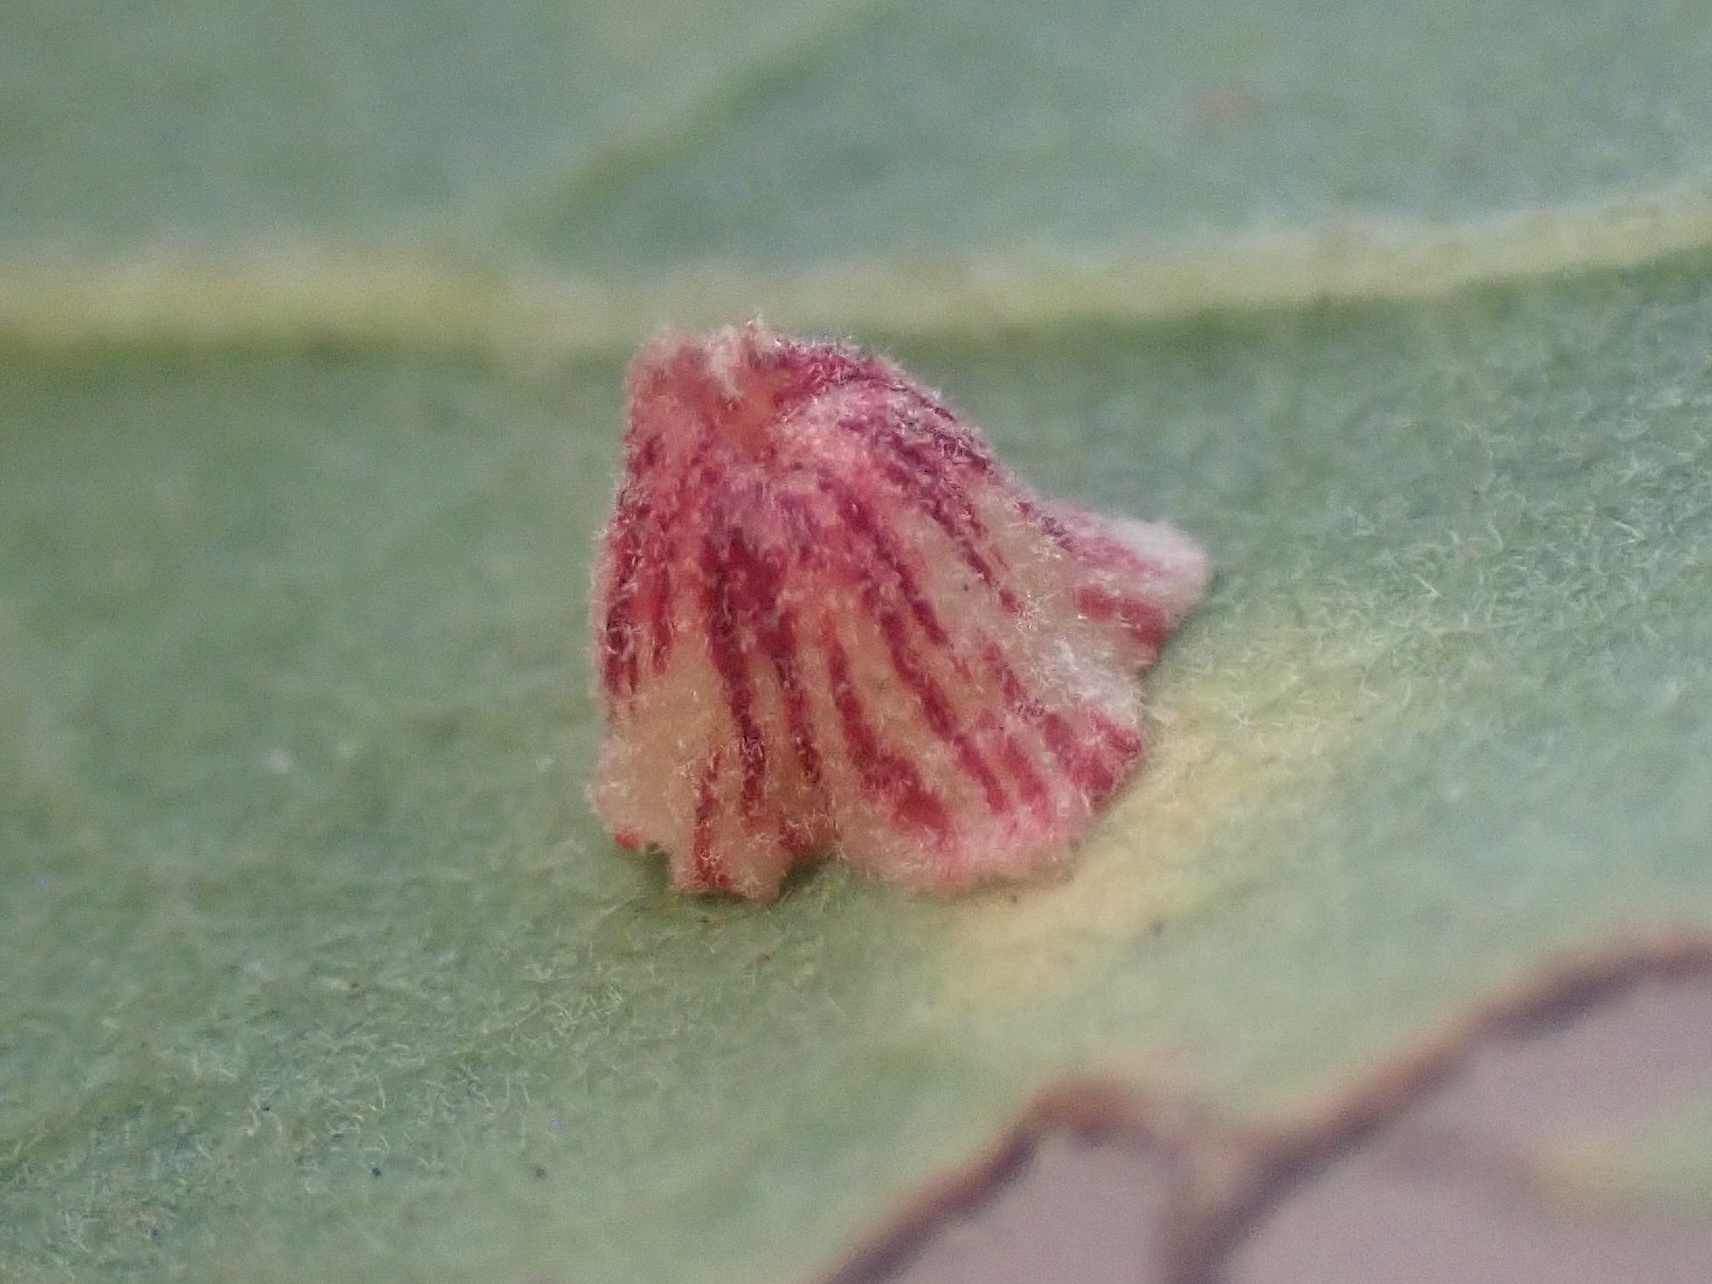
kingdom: Animalia
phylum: Arthropoda
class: Insecta
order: Hymenoptera
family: Cynipidae
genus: Andricus
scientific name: Andricus
